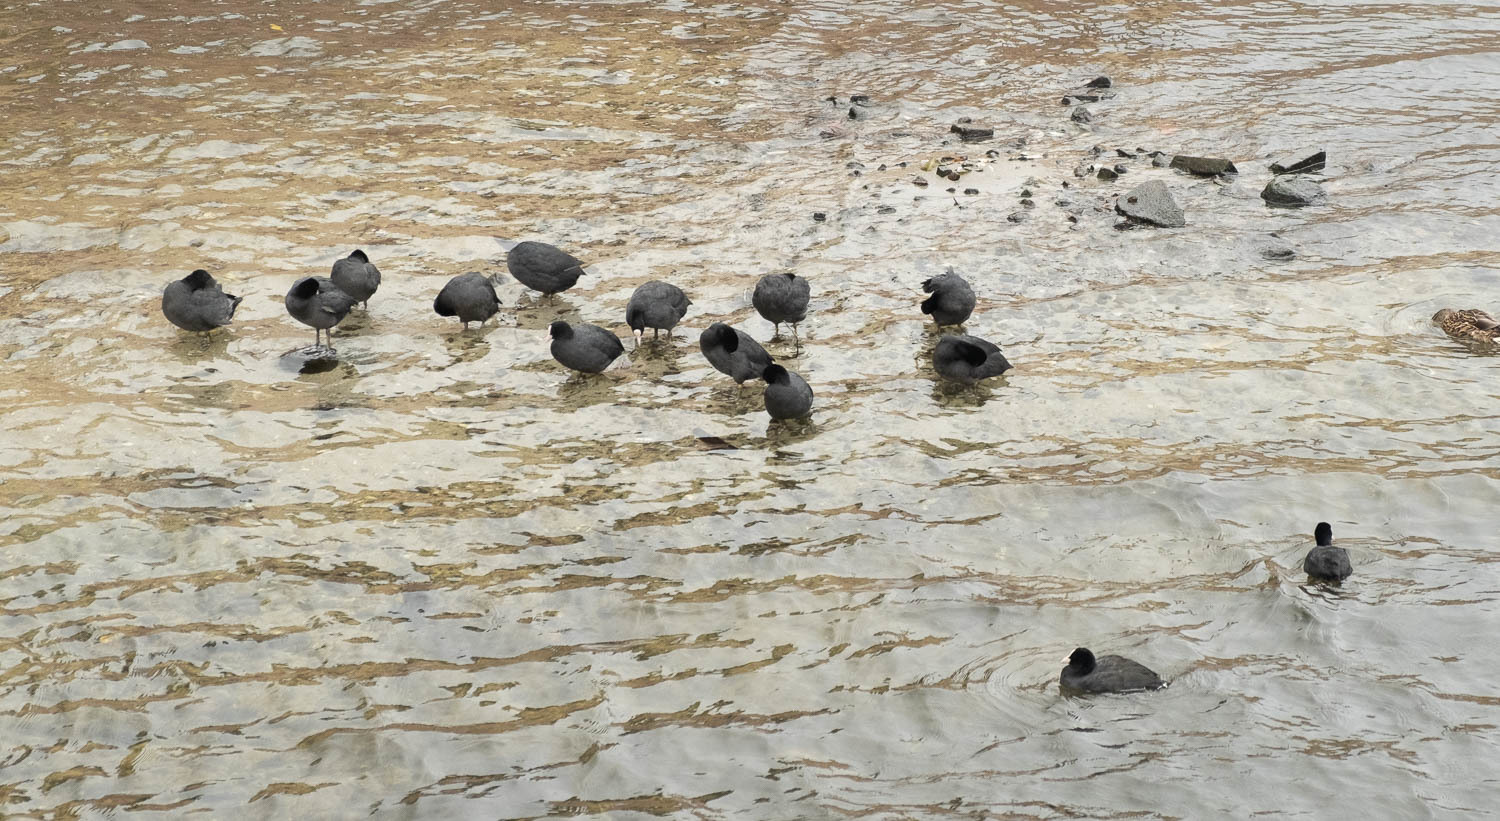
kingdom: Animalia
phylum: Chordata
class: Aves
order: Gruiformes
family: Rallidae
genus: Fulica
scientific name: Fulica atra
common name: Eurasian coot
